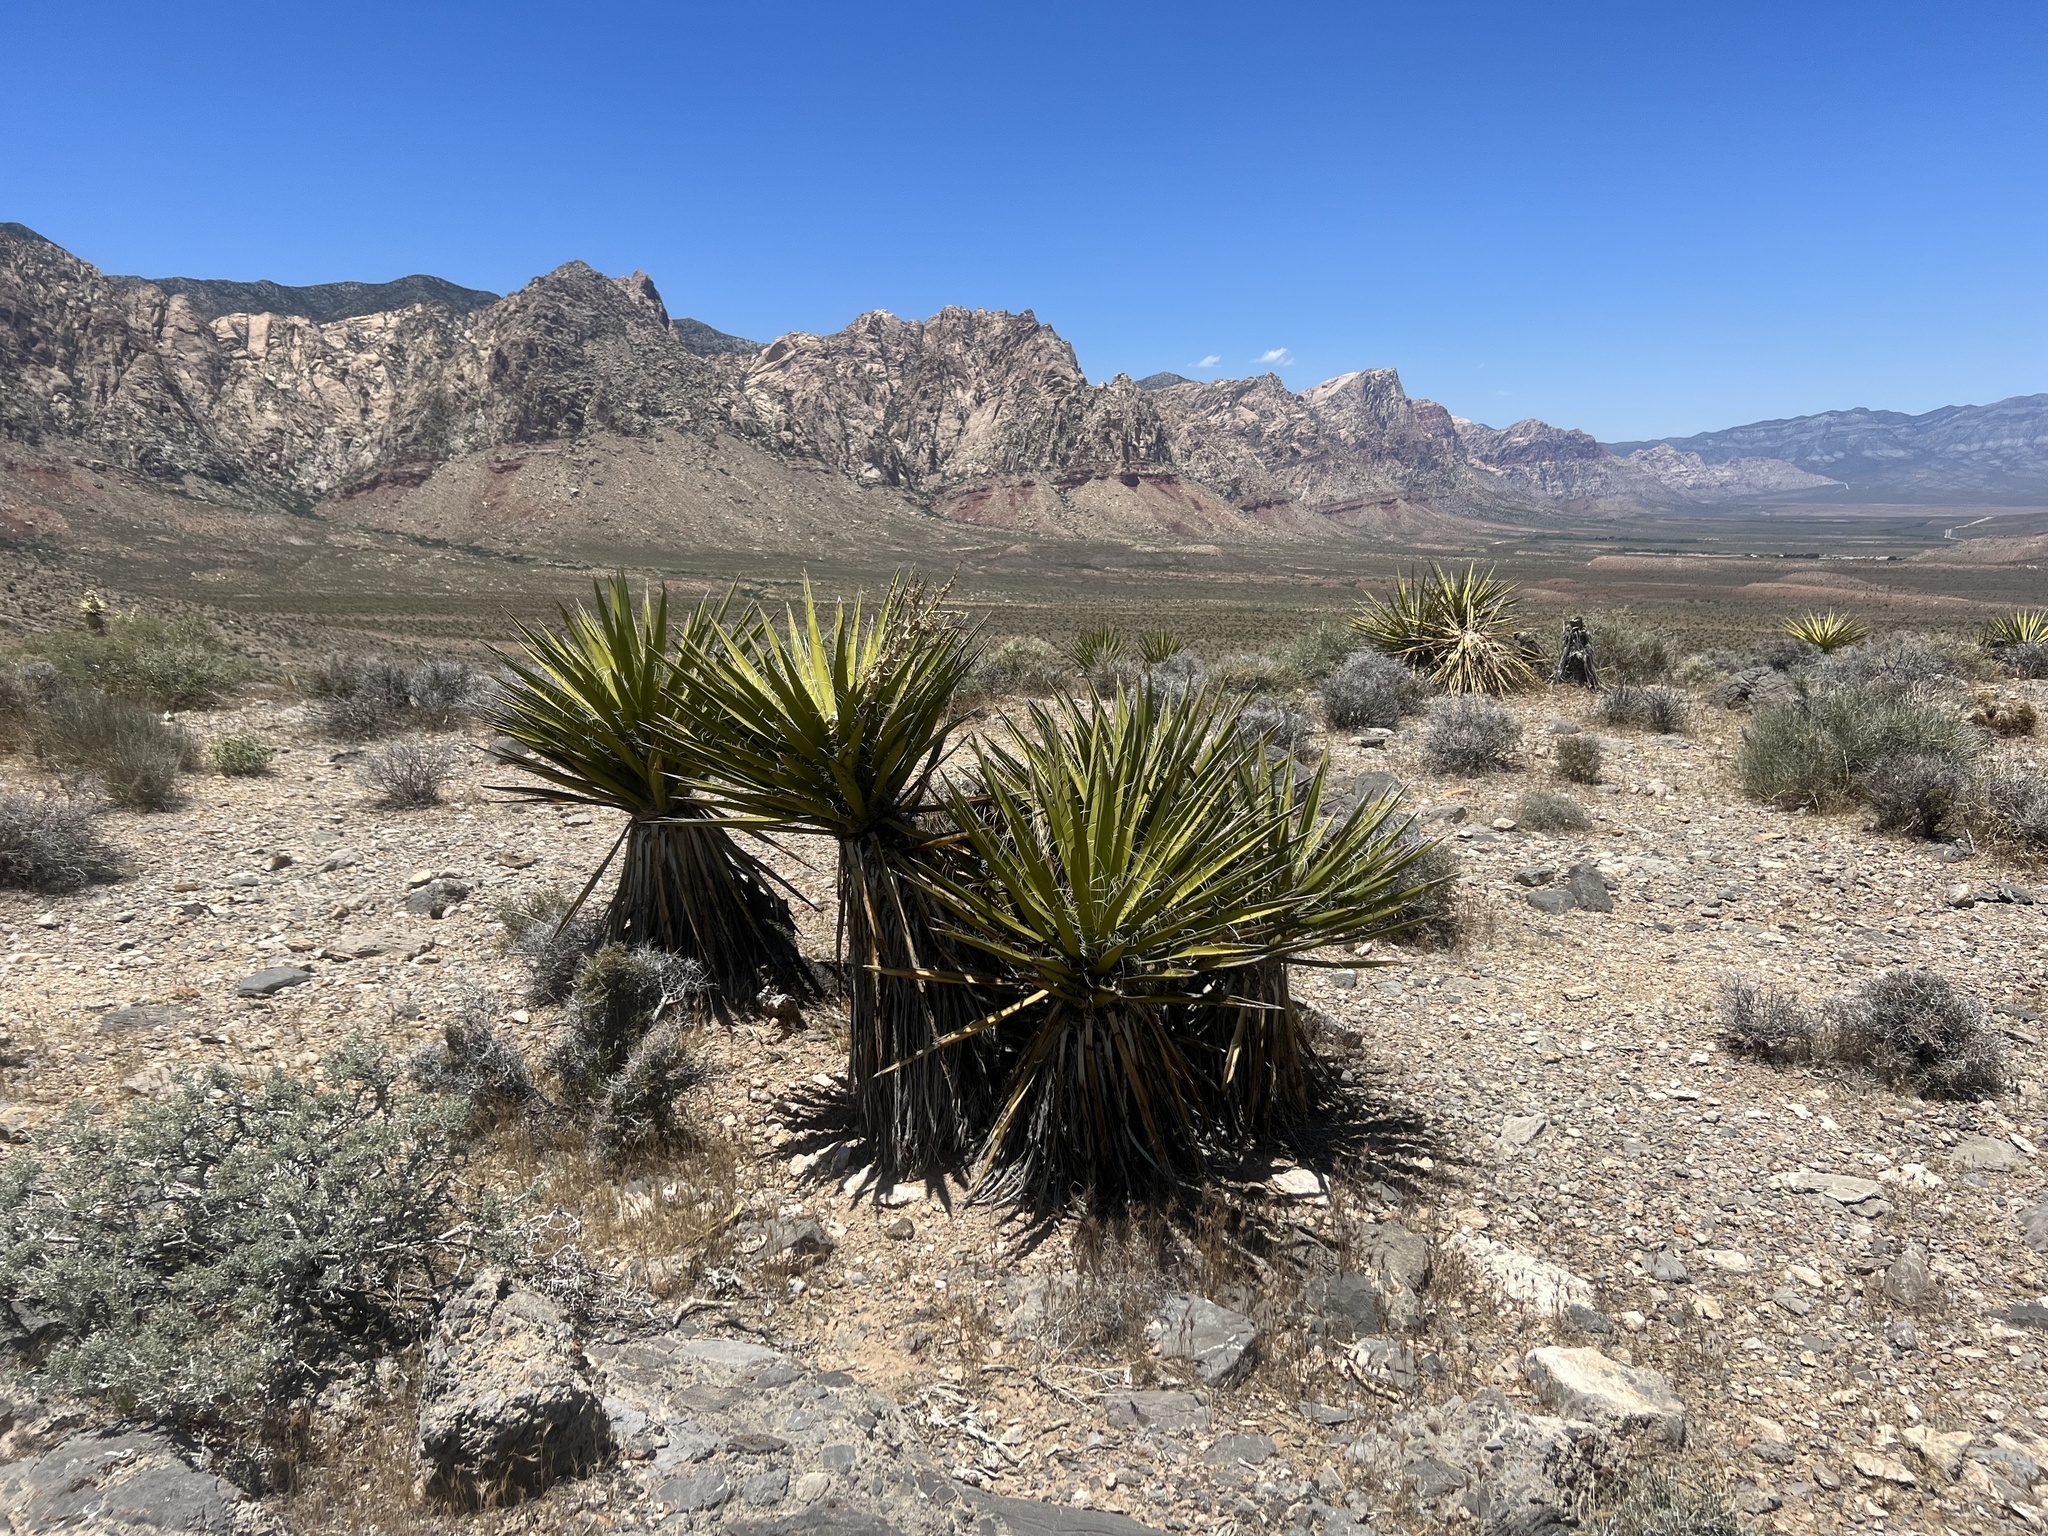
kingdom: Plantae
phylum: Tracheophyta
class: Liliopsida
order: Asparagales
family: Asparagaceae
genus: Yucca
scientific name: Yucca schidigera
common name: Mojave yucca
